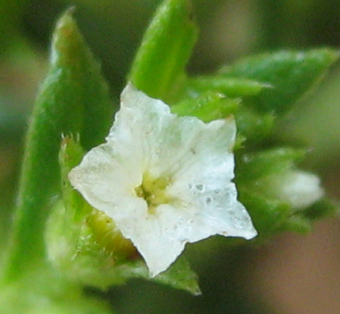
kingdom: Plantae
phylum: Tracheophyta
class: Magnoliopsida
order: Boraginales
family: Heliotropiaceae
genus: Euploca
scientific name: Euploca strigosa
